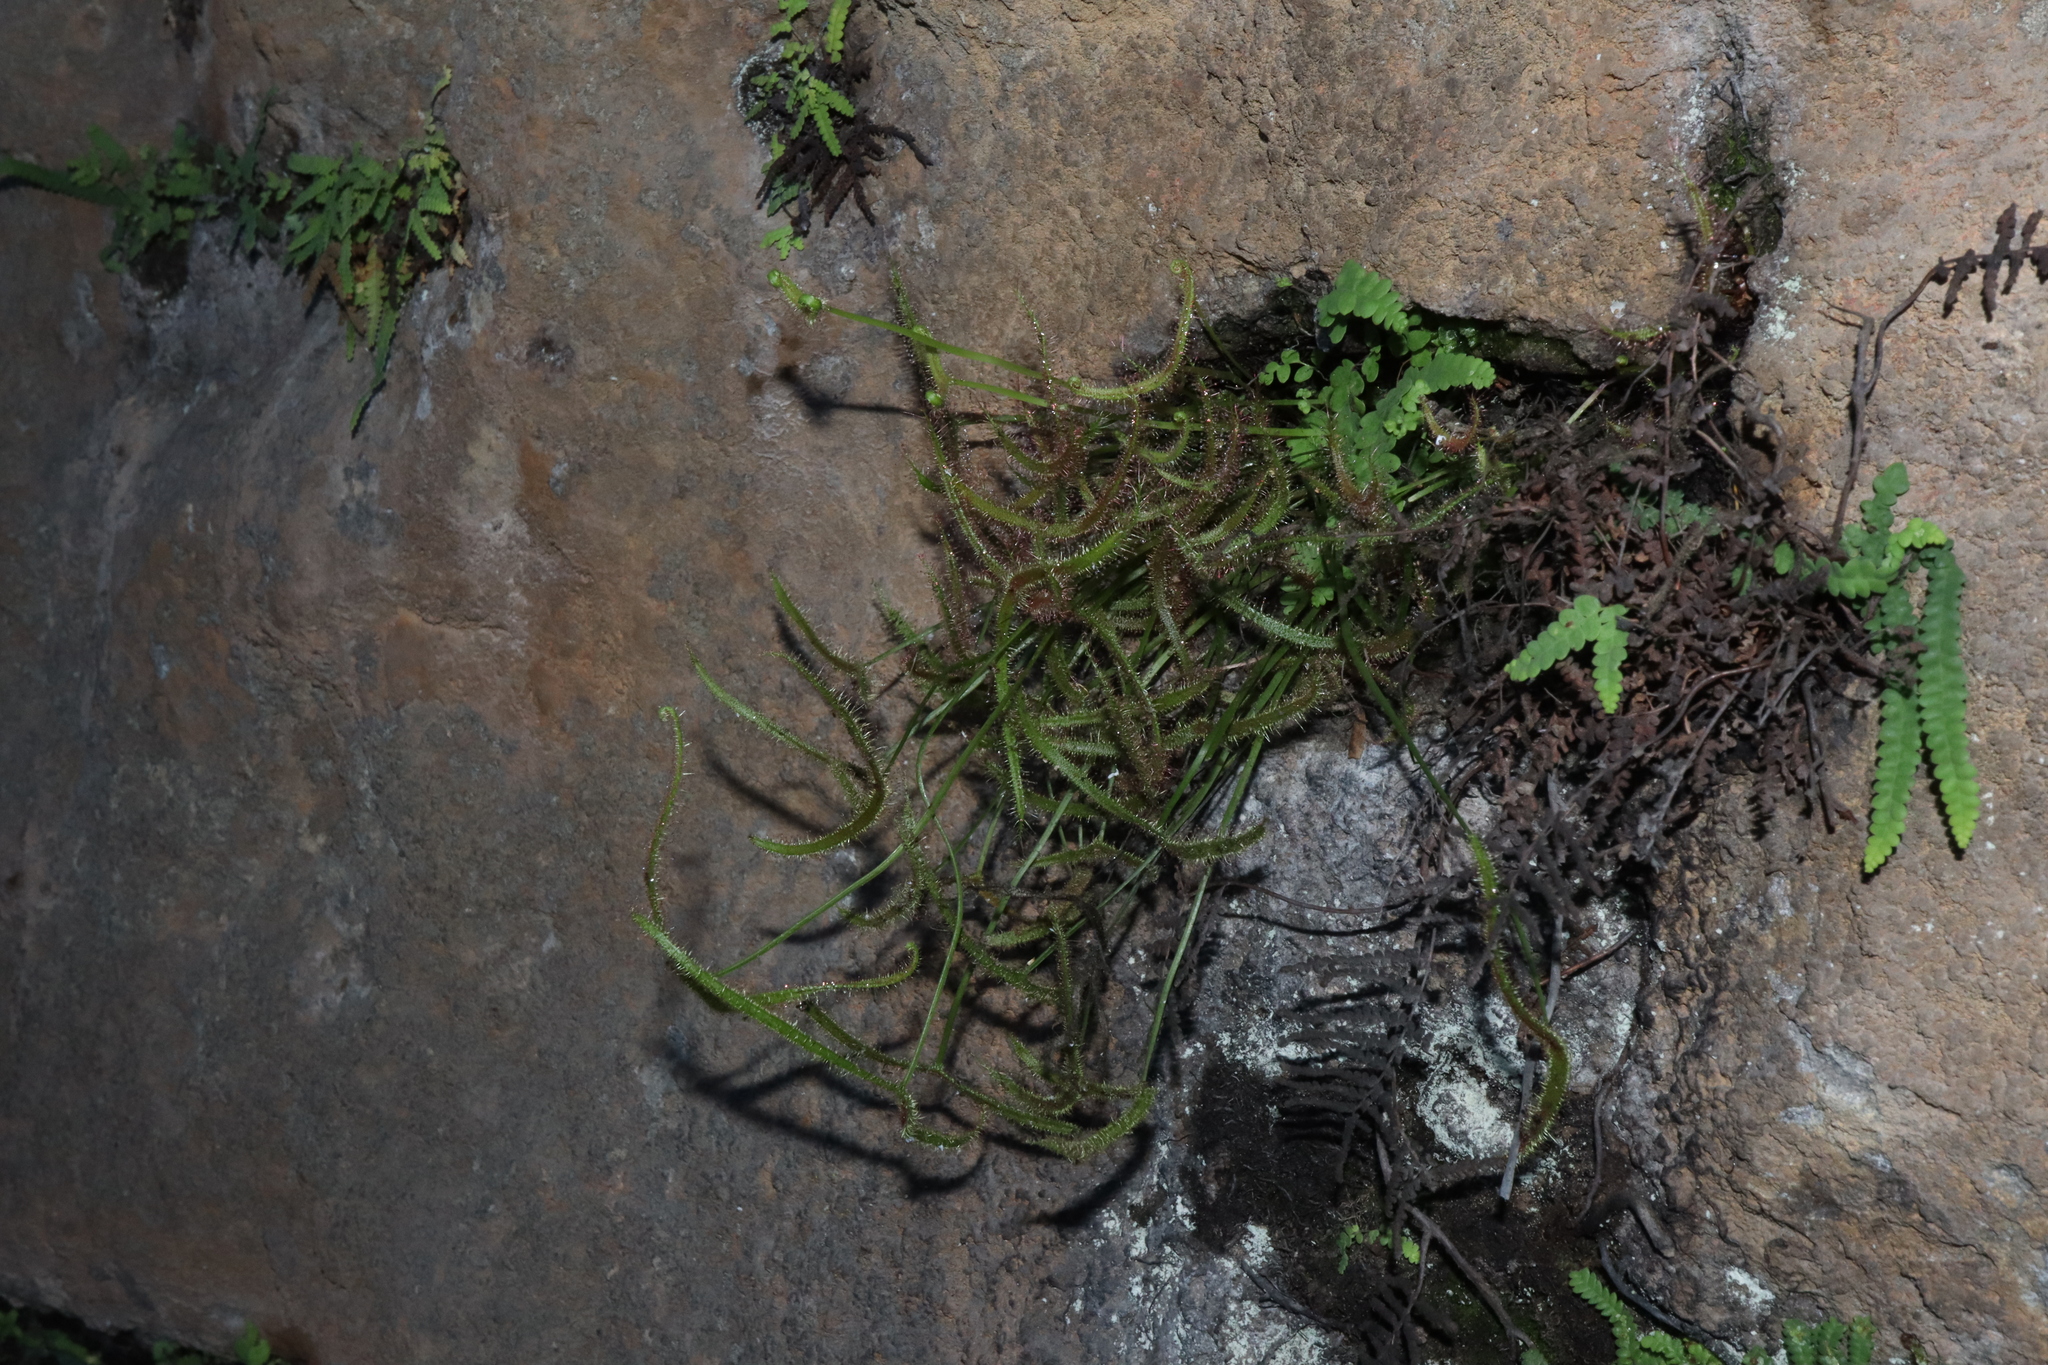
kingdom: Plantae
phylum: Tracheophyta
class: Magnoliopsida
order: Caryophyllales
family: Droseraceae
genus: Drosera
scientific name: Drosera binata
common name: Forked sundew
